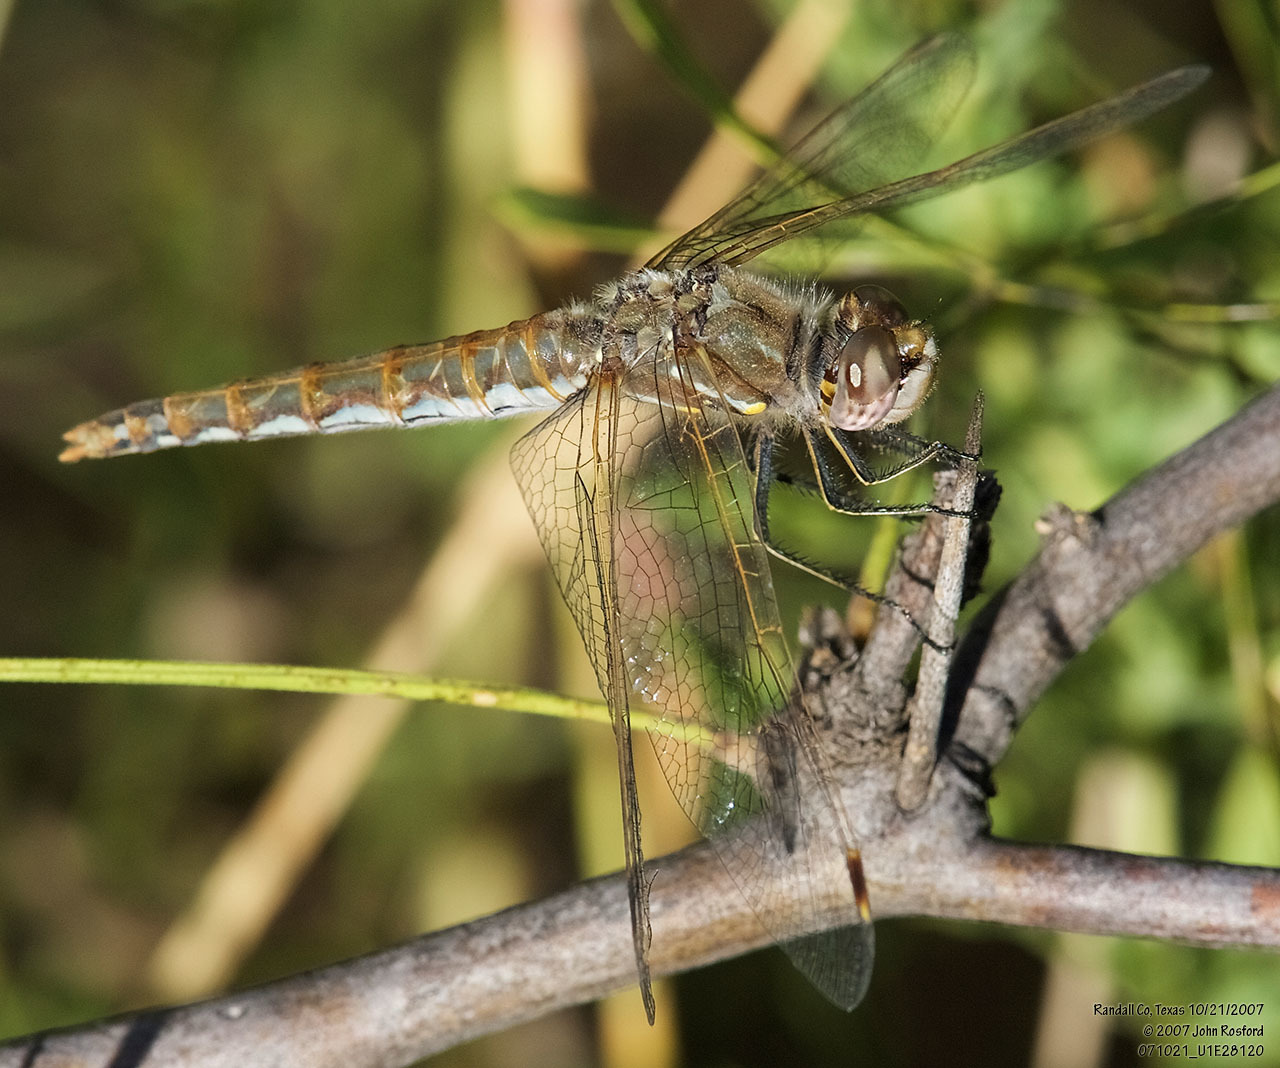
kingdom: Animalia
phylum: Arthropoda
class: Insecta
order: Odonata
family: Libellulidae
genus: Sympetrum
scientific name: Sympetrum corruptum
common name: Variegated meadowhawk
